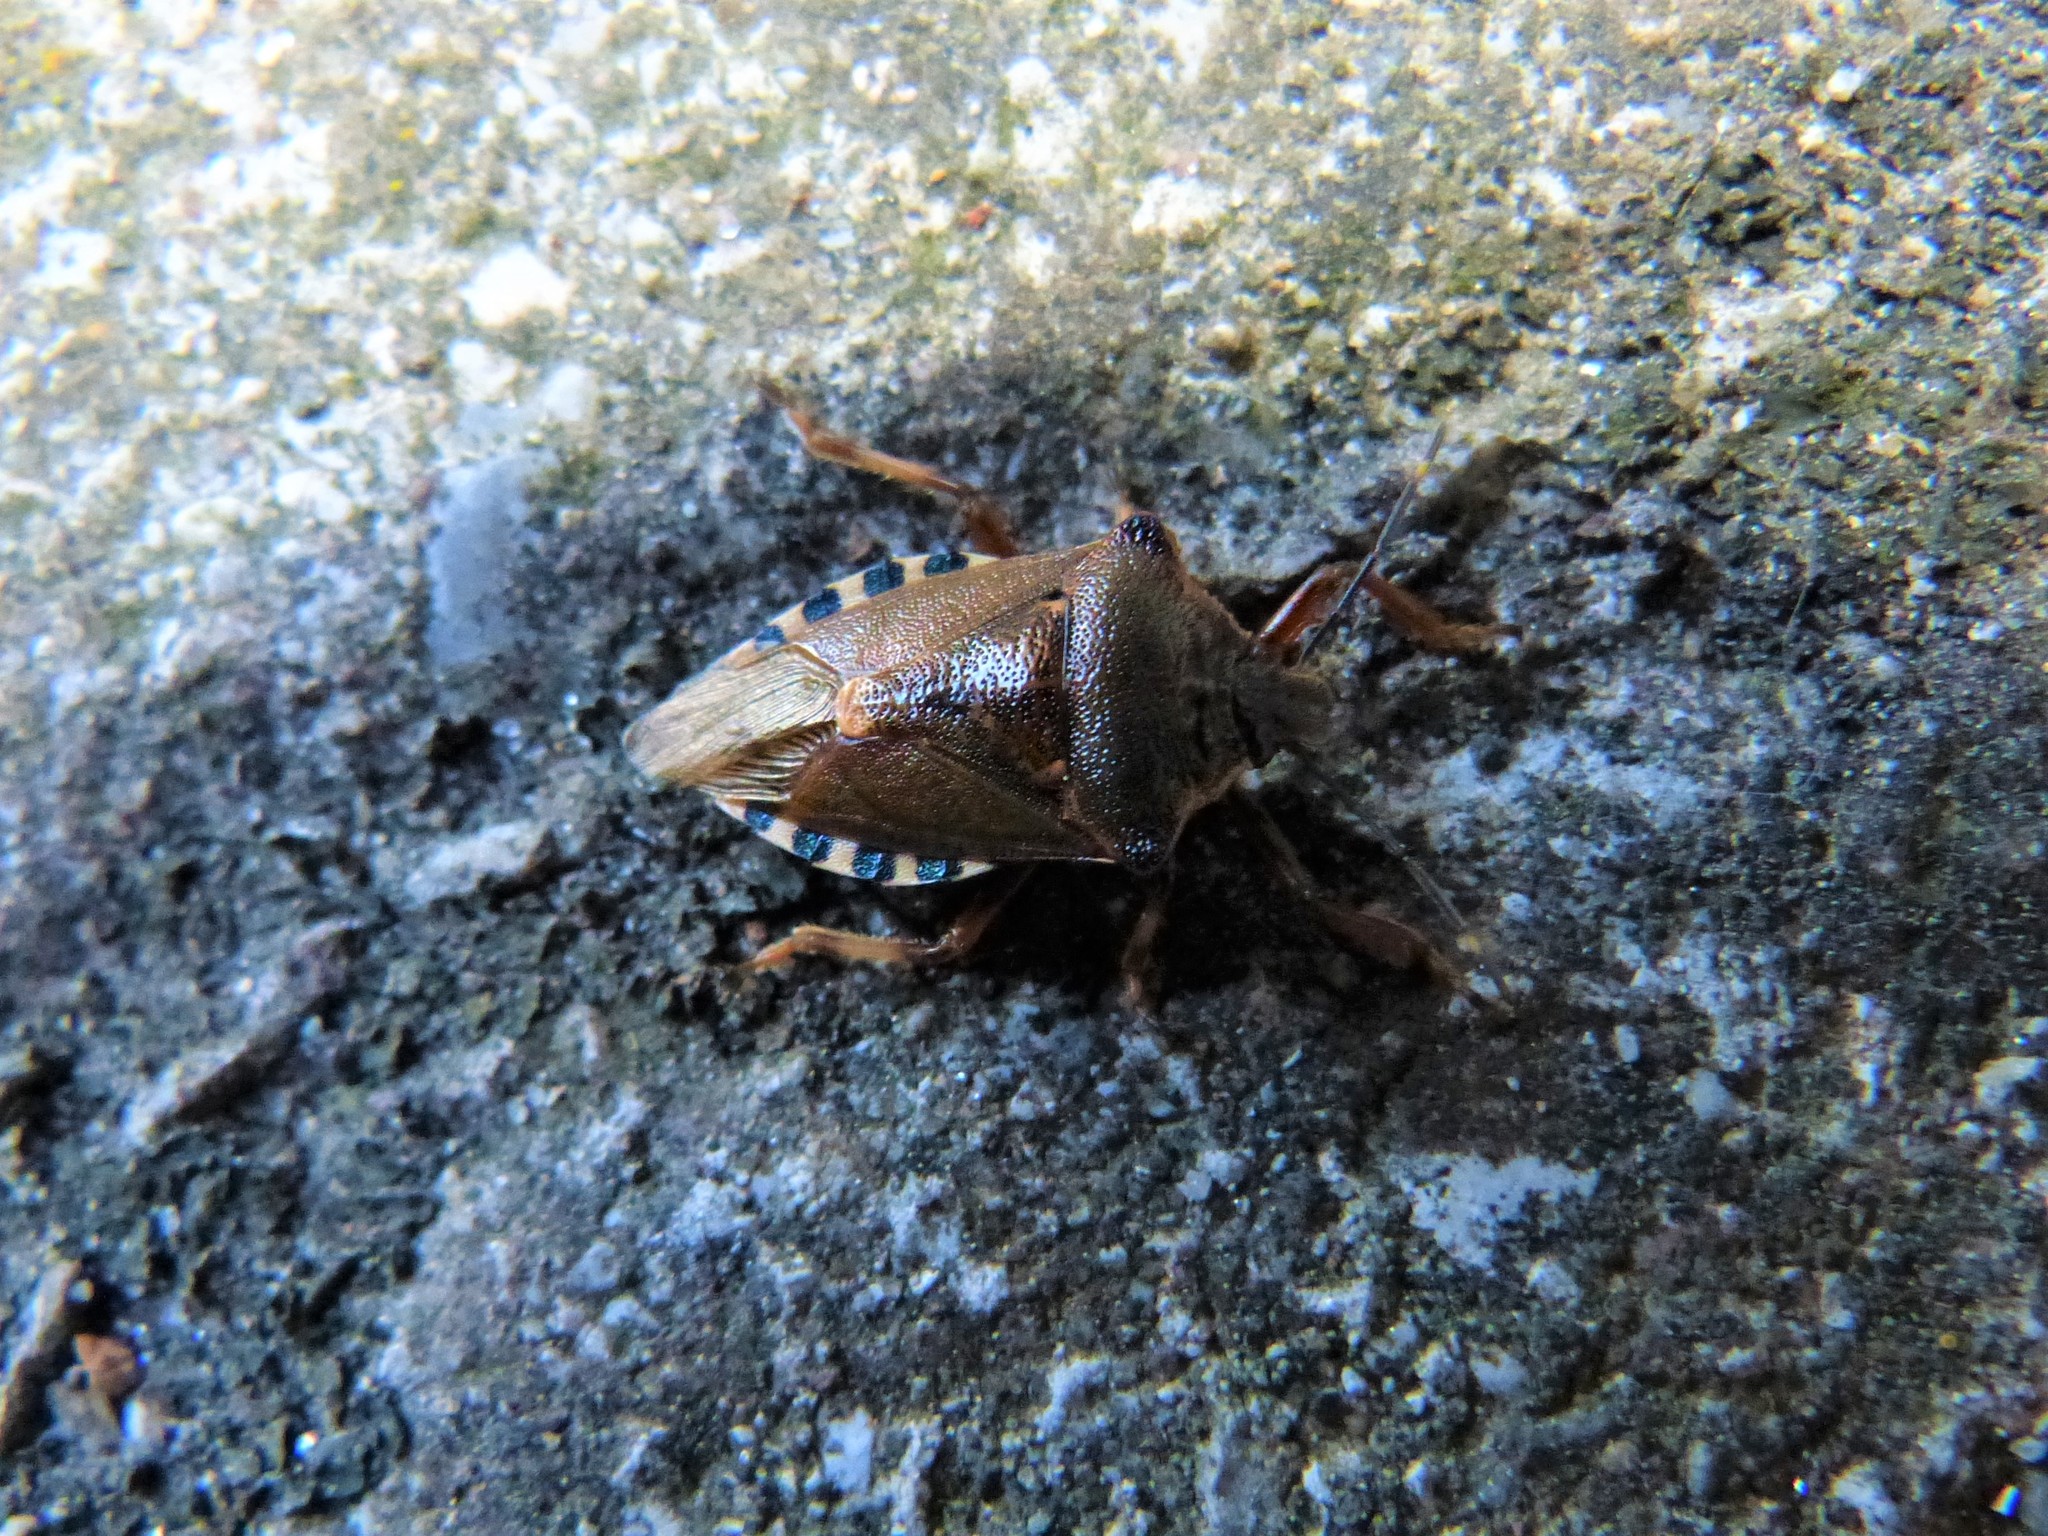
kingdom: Animalia
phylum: Arthropoda
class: Insecta
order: Hemiptera
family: Pentatomidae
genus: Pinthaeus
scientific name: Pinthaeus sanguinipes
